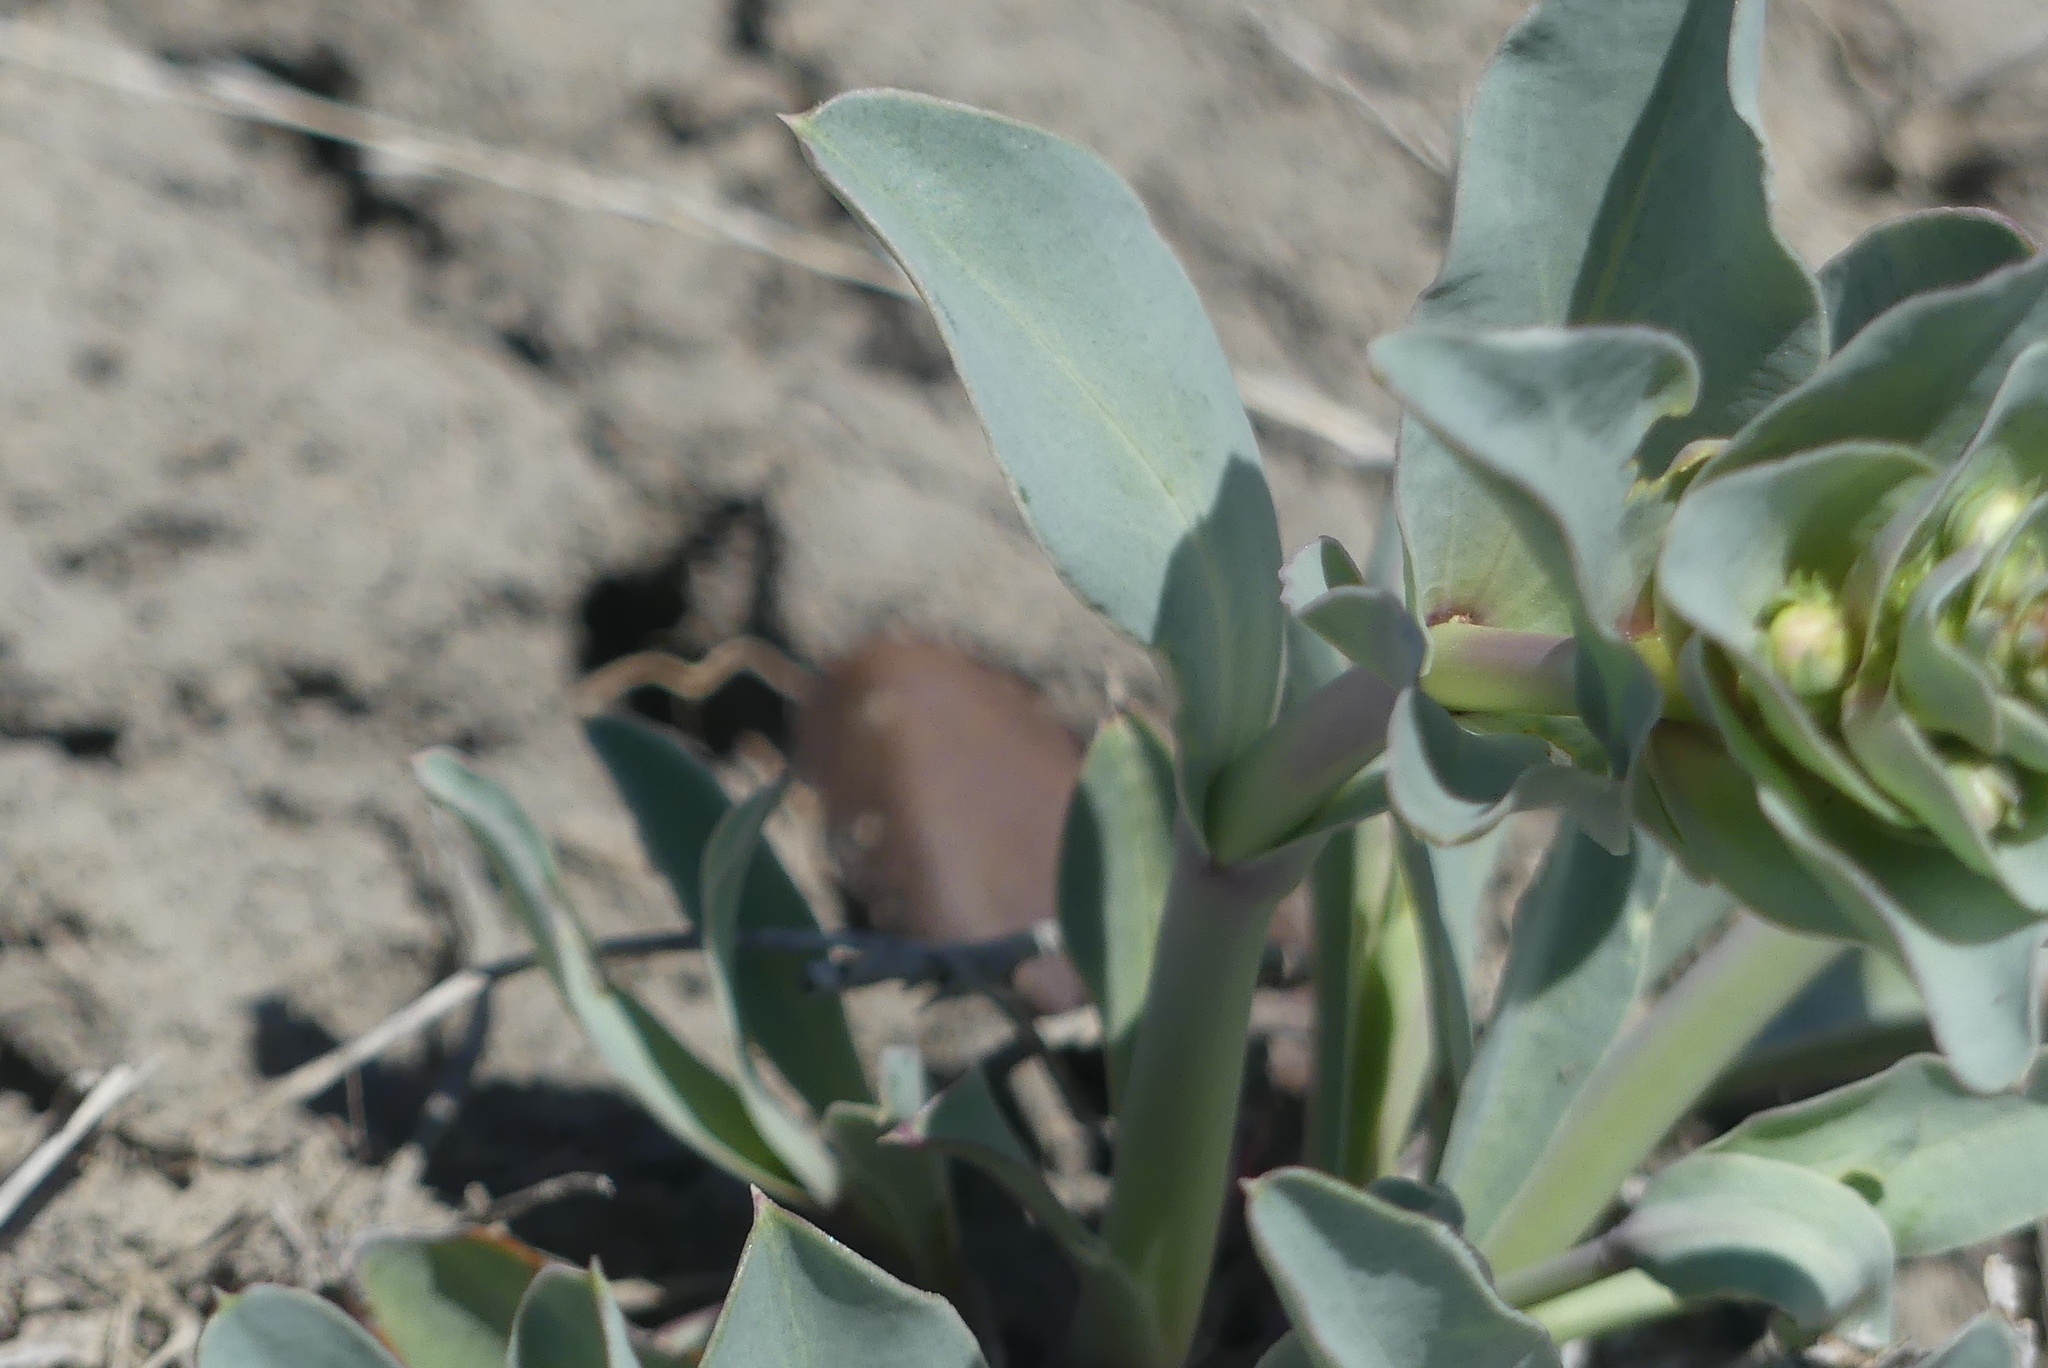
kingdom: Plantae
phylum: Tracheophyta
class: Magnoliopsida
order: Lamiales
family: Plantaginaceae
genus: Penstemon
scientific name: Penstemon nitidus
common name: Shining penstemon
